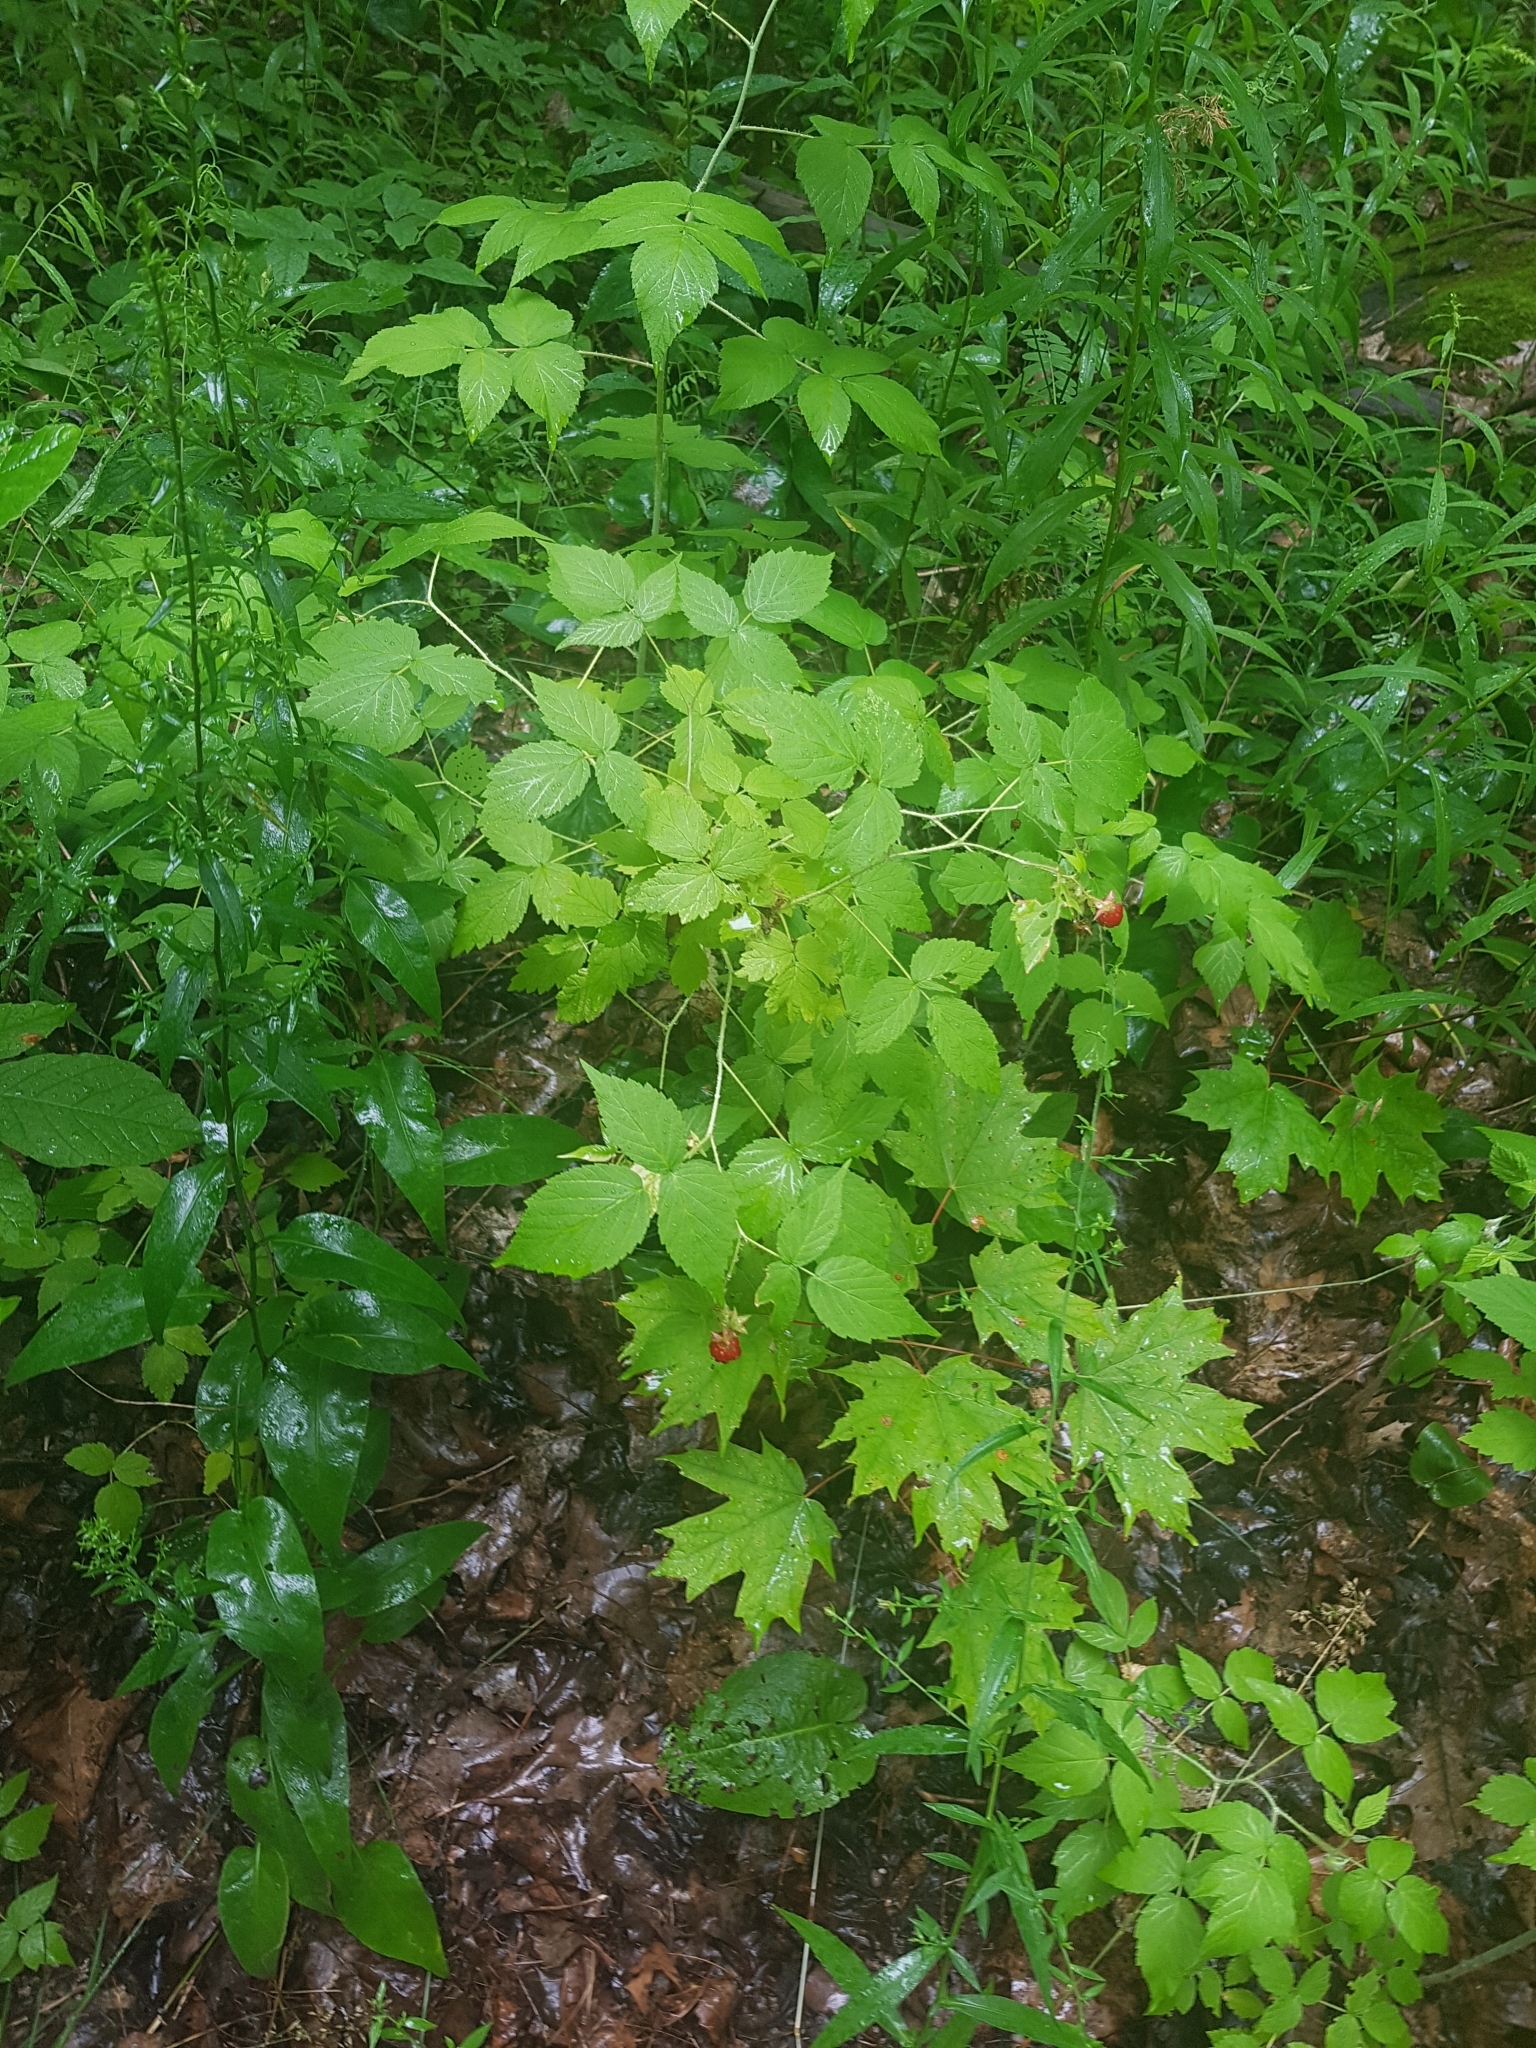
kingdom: Plantae
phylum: Tracheophyta
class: Magnoliopsida
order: Rosales
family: Rosaceae
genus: Rubus
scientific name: Rubus idaeus
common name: Raspberry
